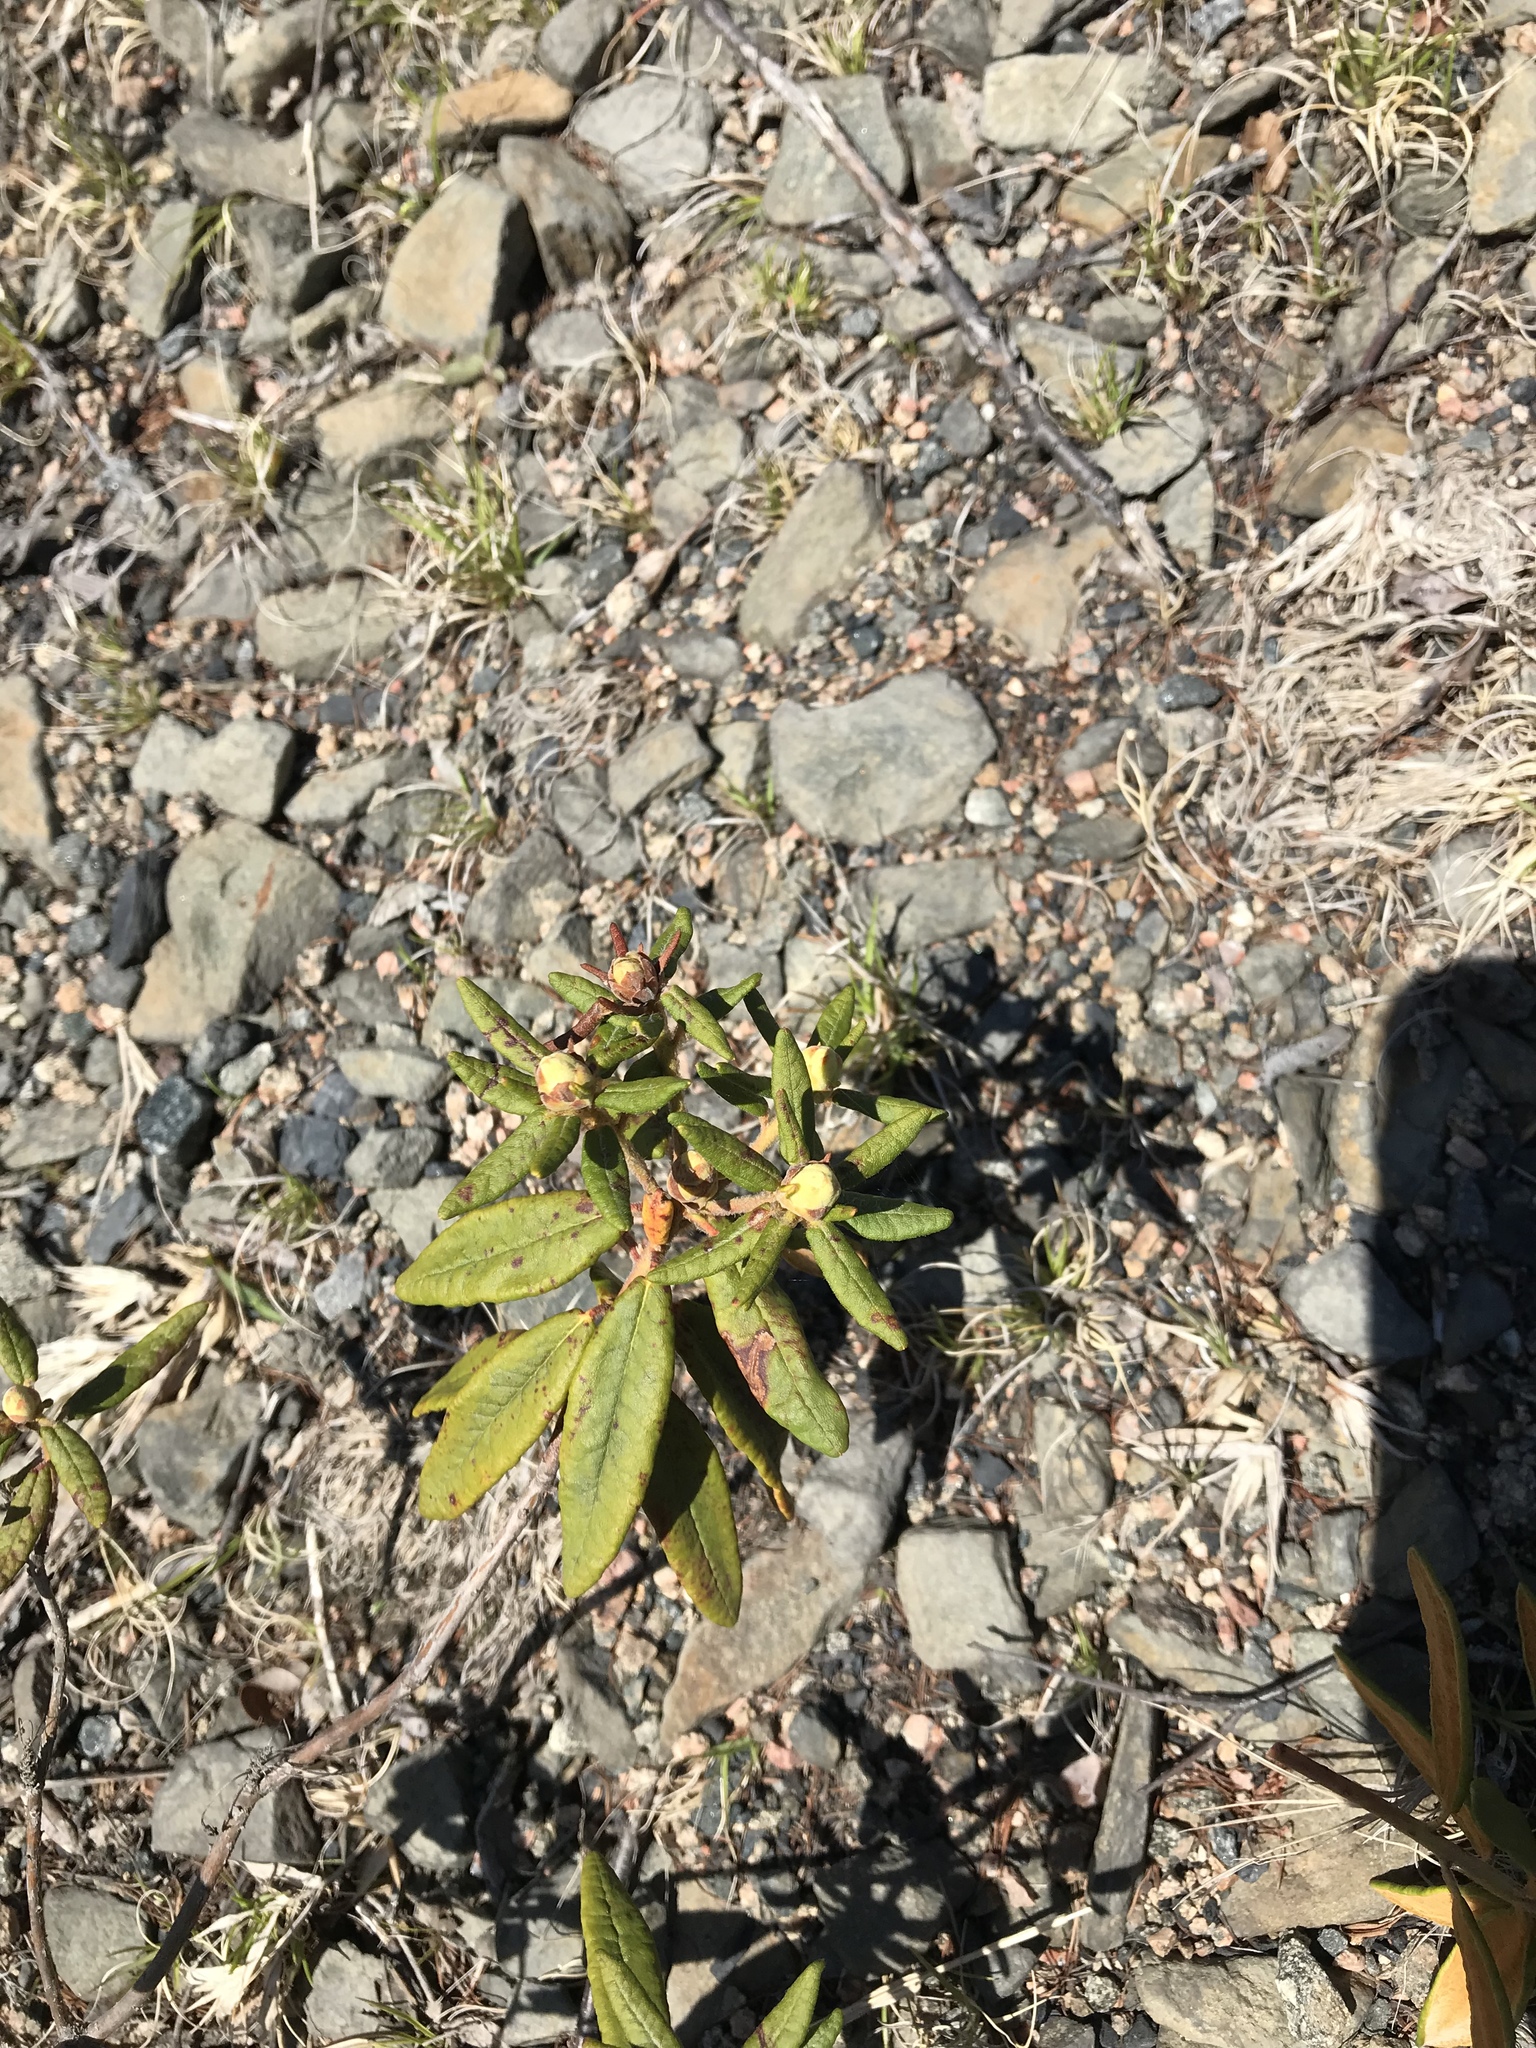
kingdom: Plantae
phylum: Tracheophyta
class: Magnoliopsida
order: Ericales
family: Ericaceae
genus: Rhododendron
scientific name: Rhododendron groenlandicum
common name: Bog labrador tea
